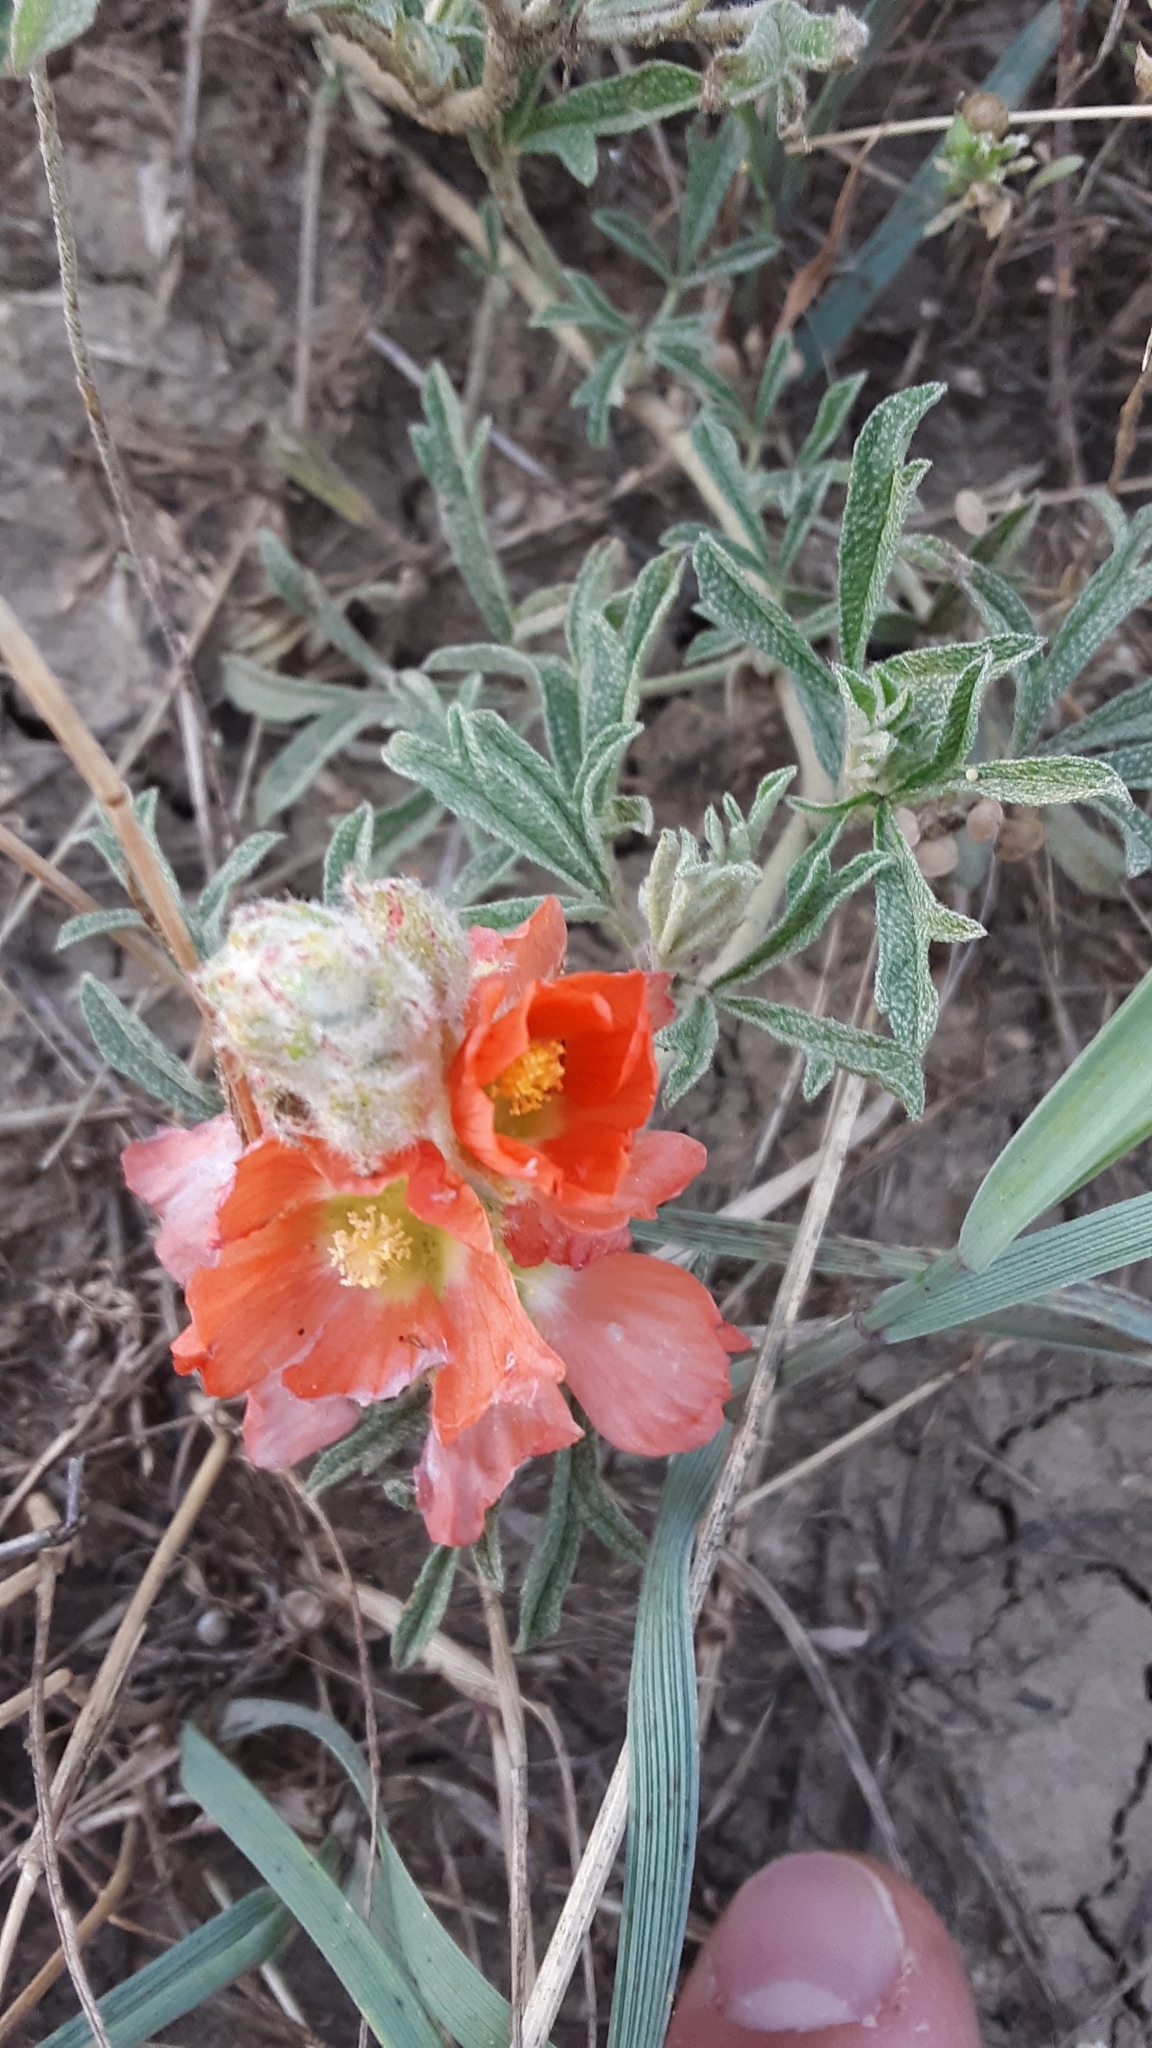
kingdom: Plantae
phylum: Tracheophyta
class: Magnoliopsida
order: Malvales
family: Malvaceae
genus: Sphaeralcea
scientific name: Sphaeralcea coccinea
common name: Moss-rose
